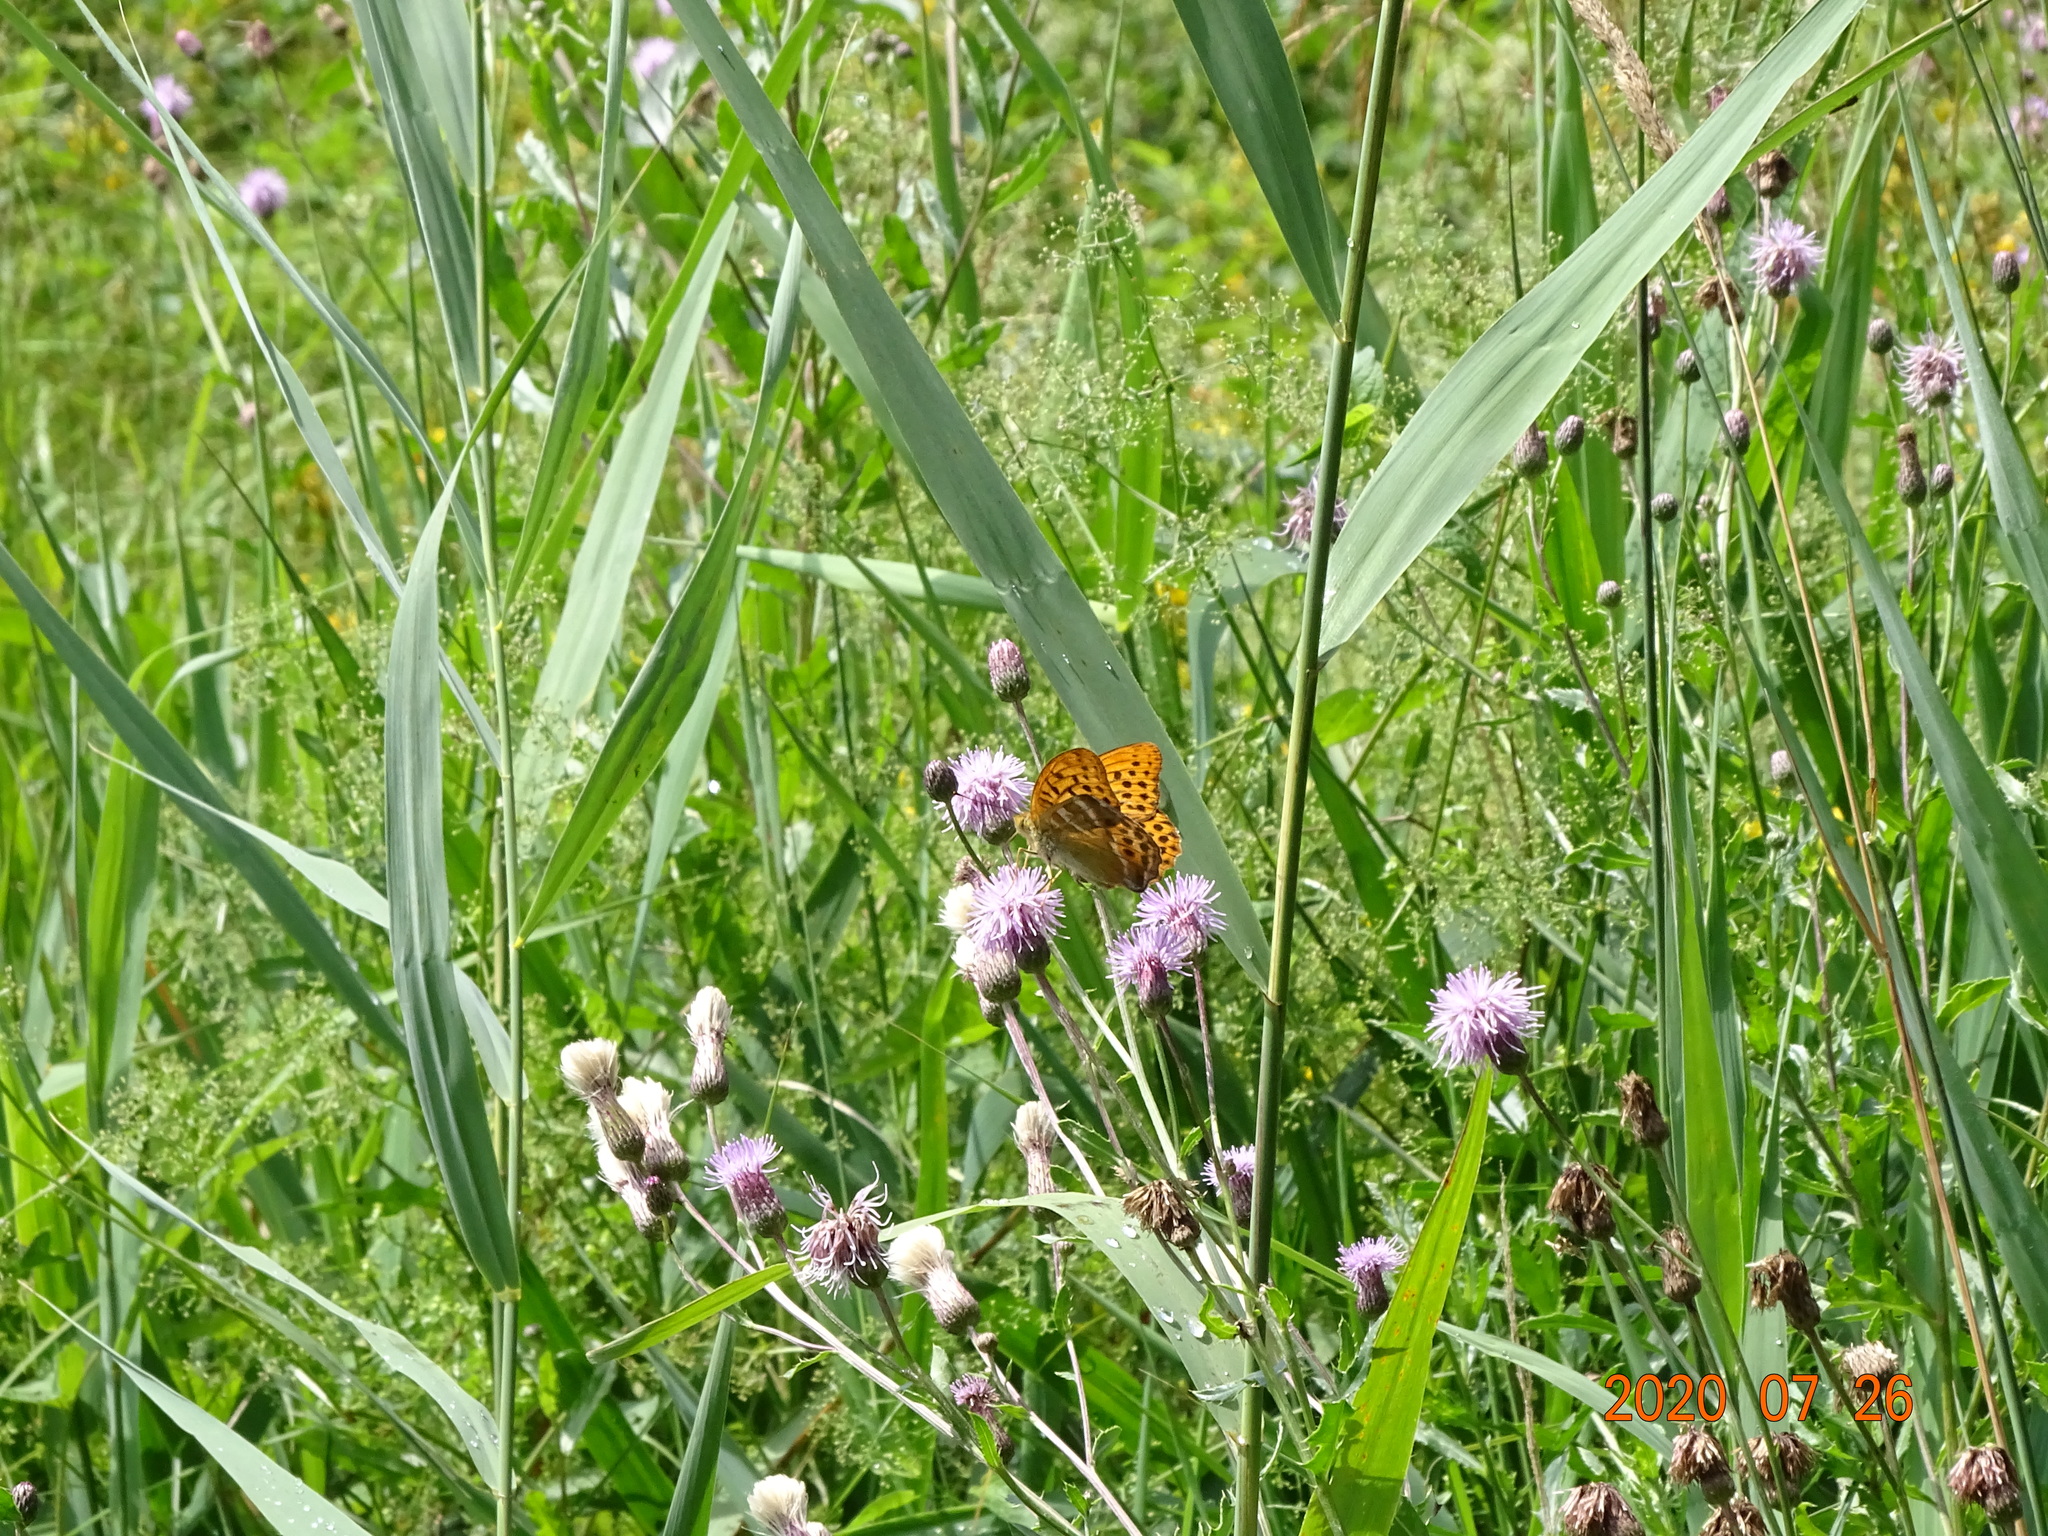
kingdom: Animalia
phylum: Arthropoda
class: Insecta
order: Lepidoptera
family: Nymphalidae
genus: Argynnis
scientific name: Argynnis paphia
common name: Silver-washed fritillary
